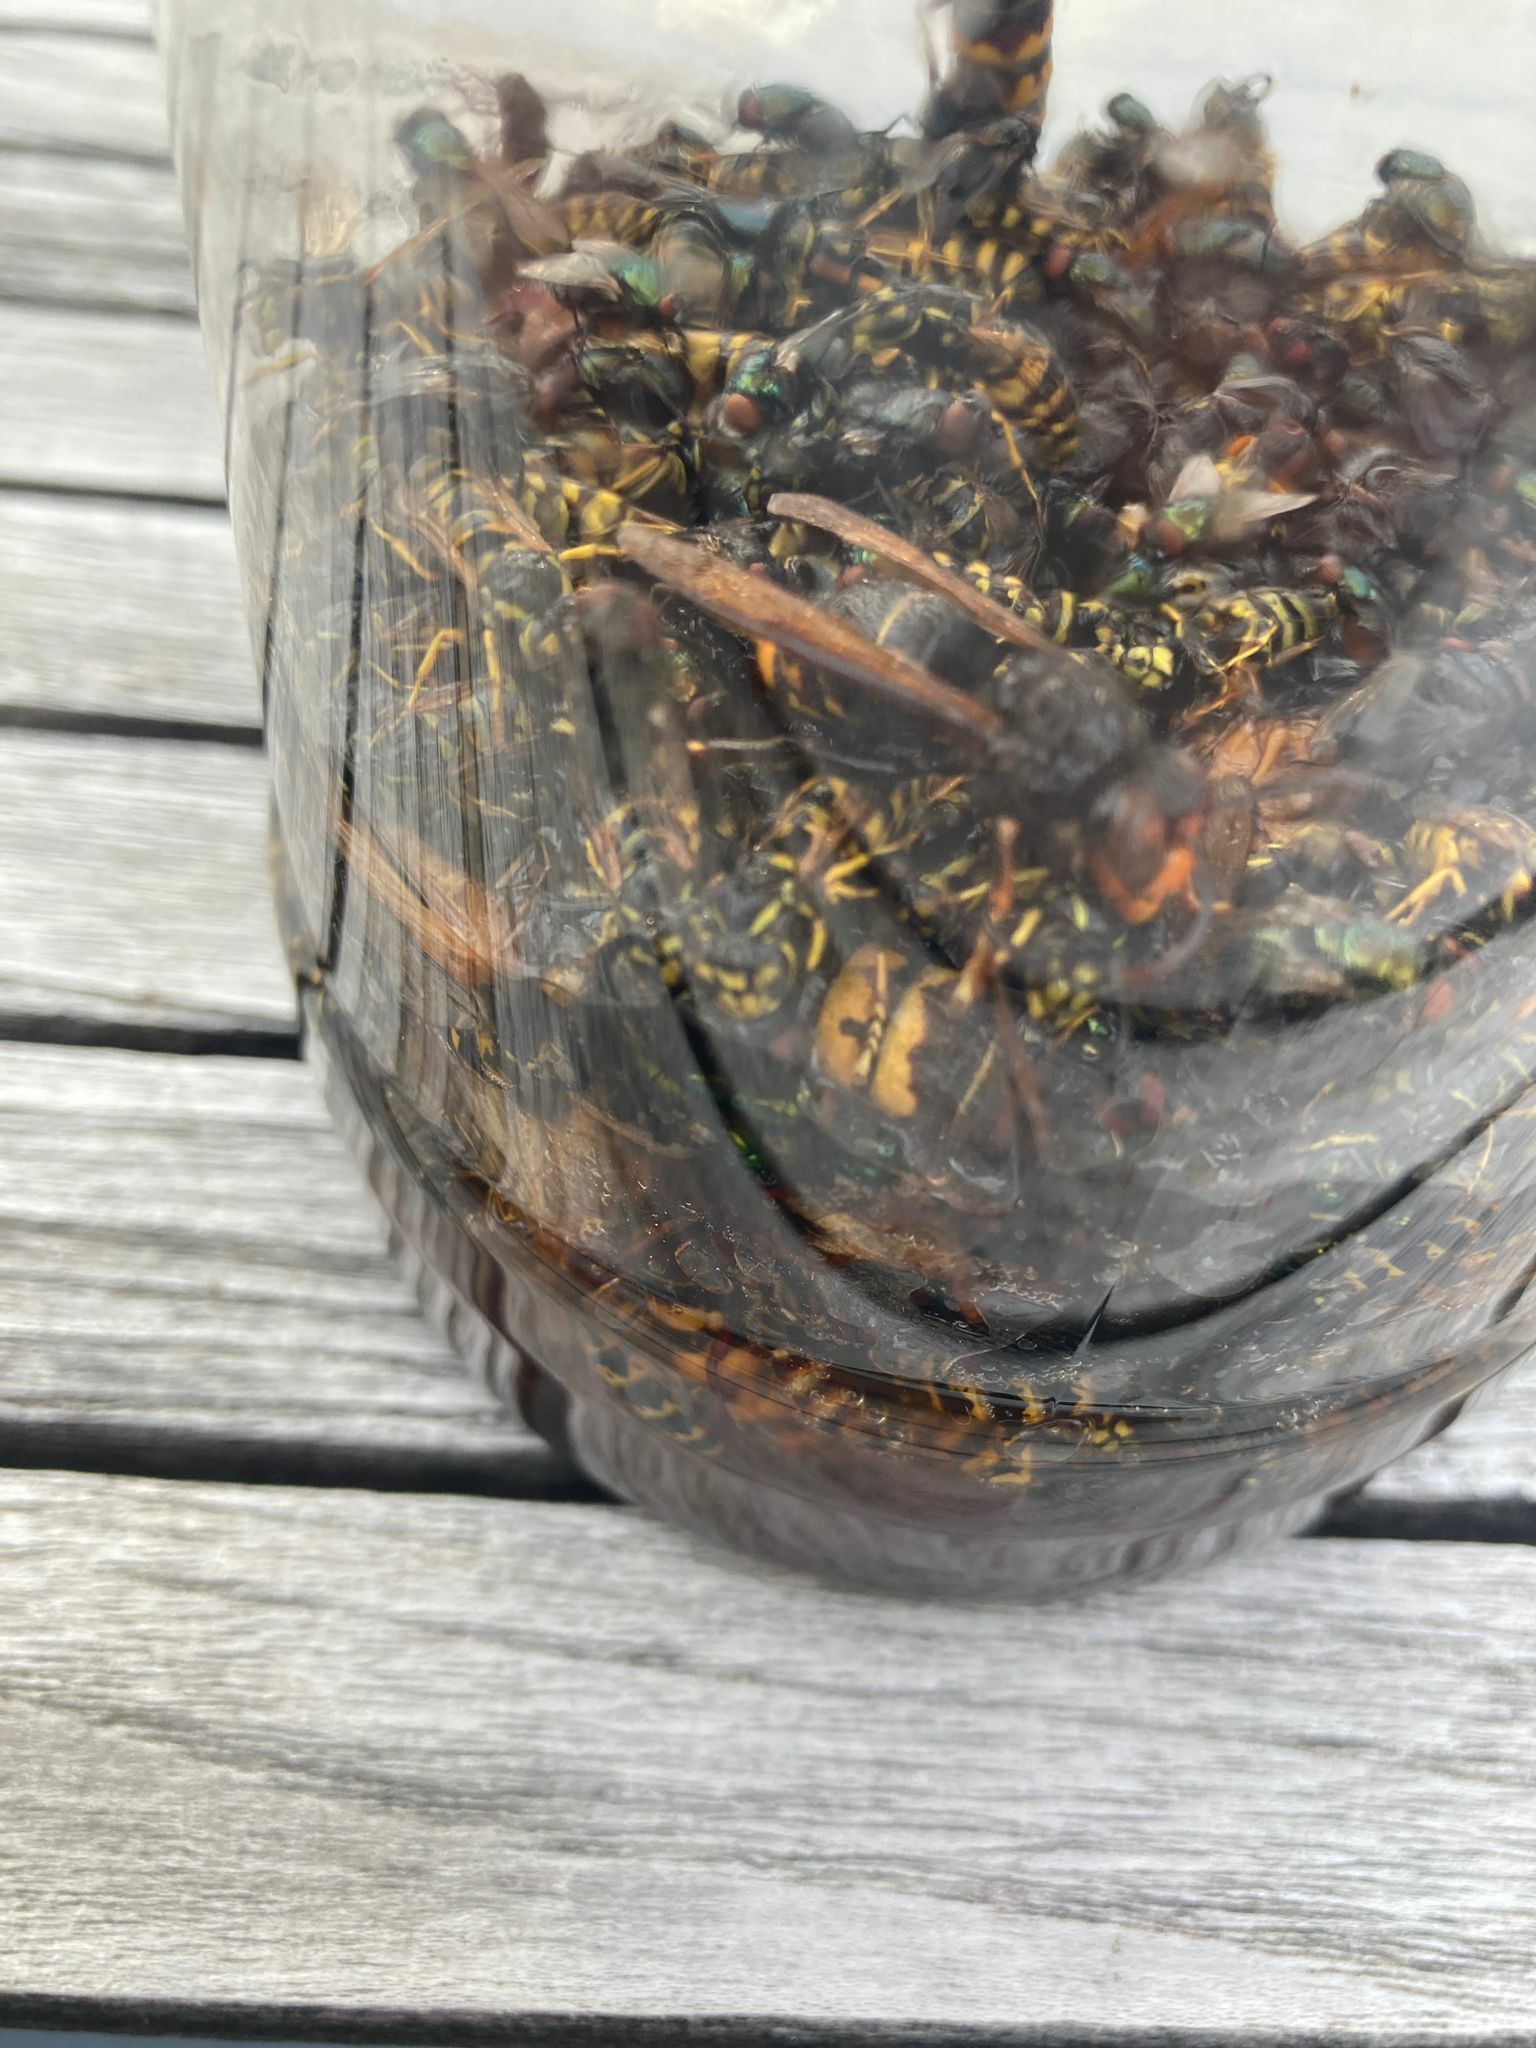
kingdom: Animalia
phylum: Arthropoda
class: Insecta
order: Hymenoptera
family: Vespidae
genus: Vespa
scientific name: Vespa velutina
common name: Asian hornet
